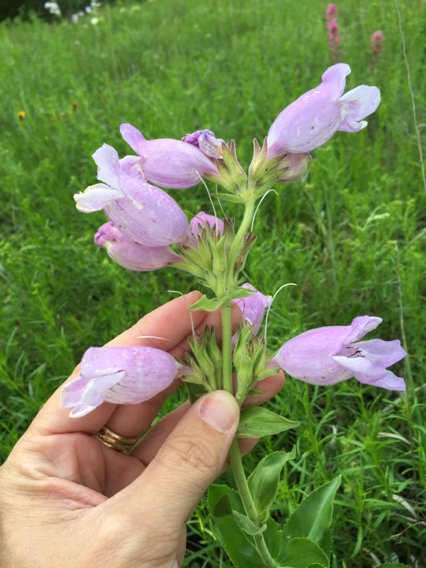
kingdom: Plantae
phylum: Tracheophyta
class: Magnoliopsida
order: Lamiales
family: Plantaginaceae
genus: Penstemon
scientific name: Penstemon cobaea
